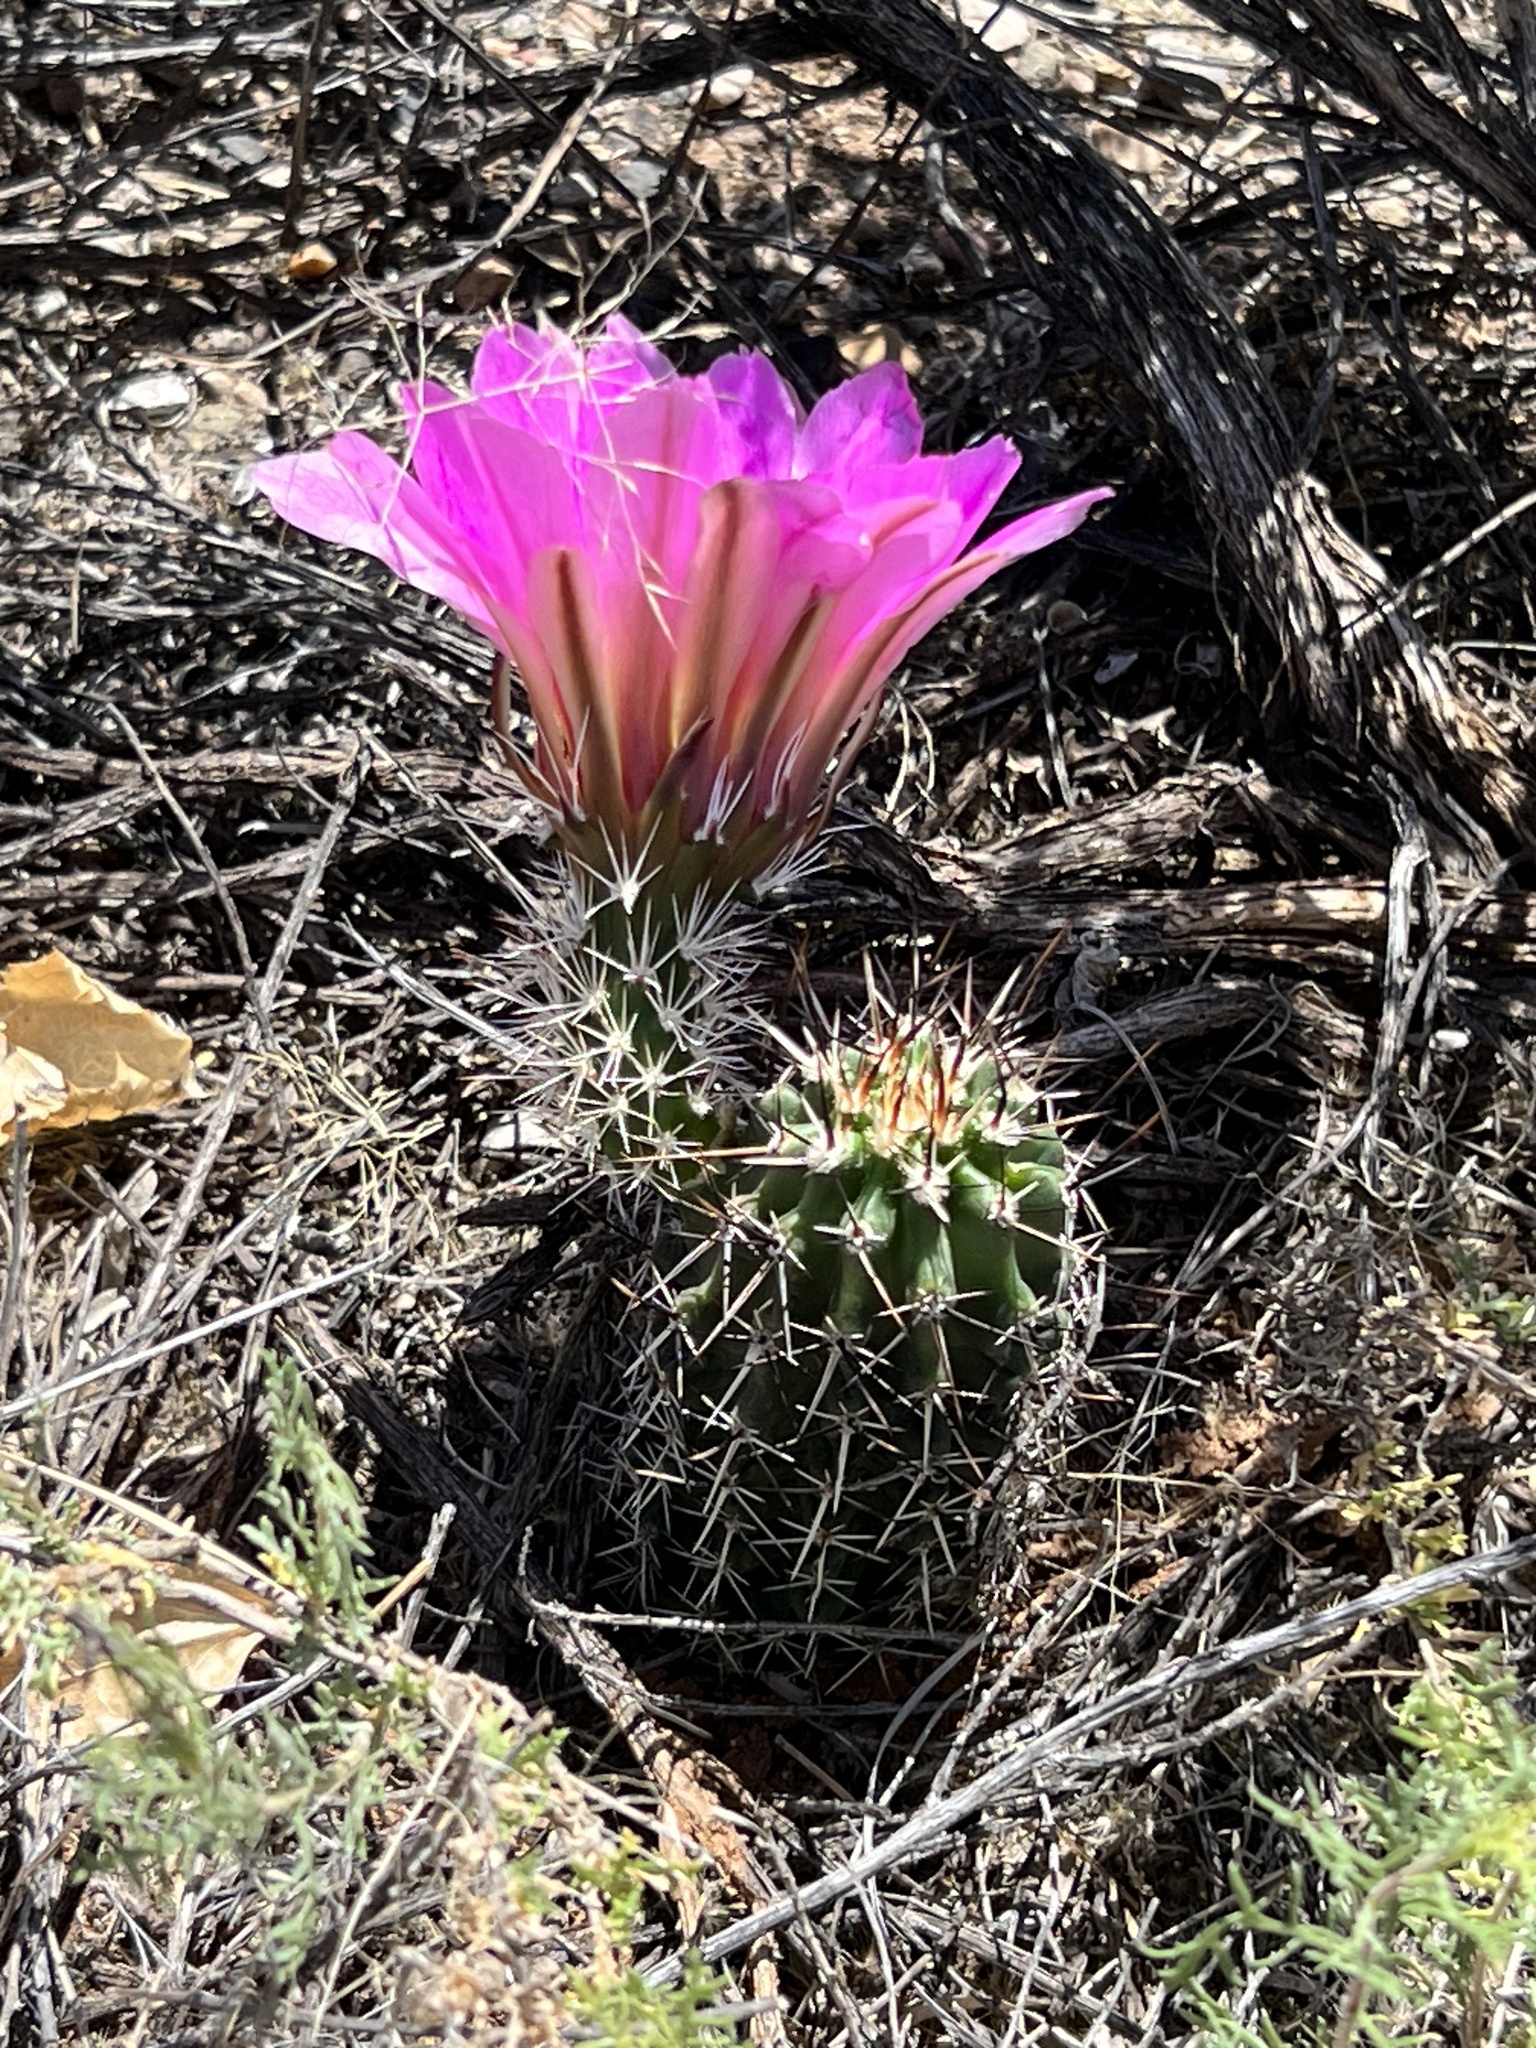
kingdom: Plantae
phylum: Tracheophyta
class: Magnoliopsida
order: Caryophyllales
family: Cactaceae
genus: Echinocereus
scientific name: Echinocereus fendleri
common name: Fendler's hedgehog cactus
